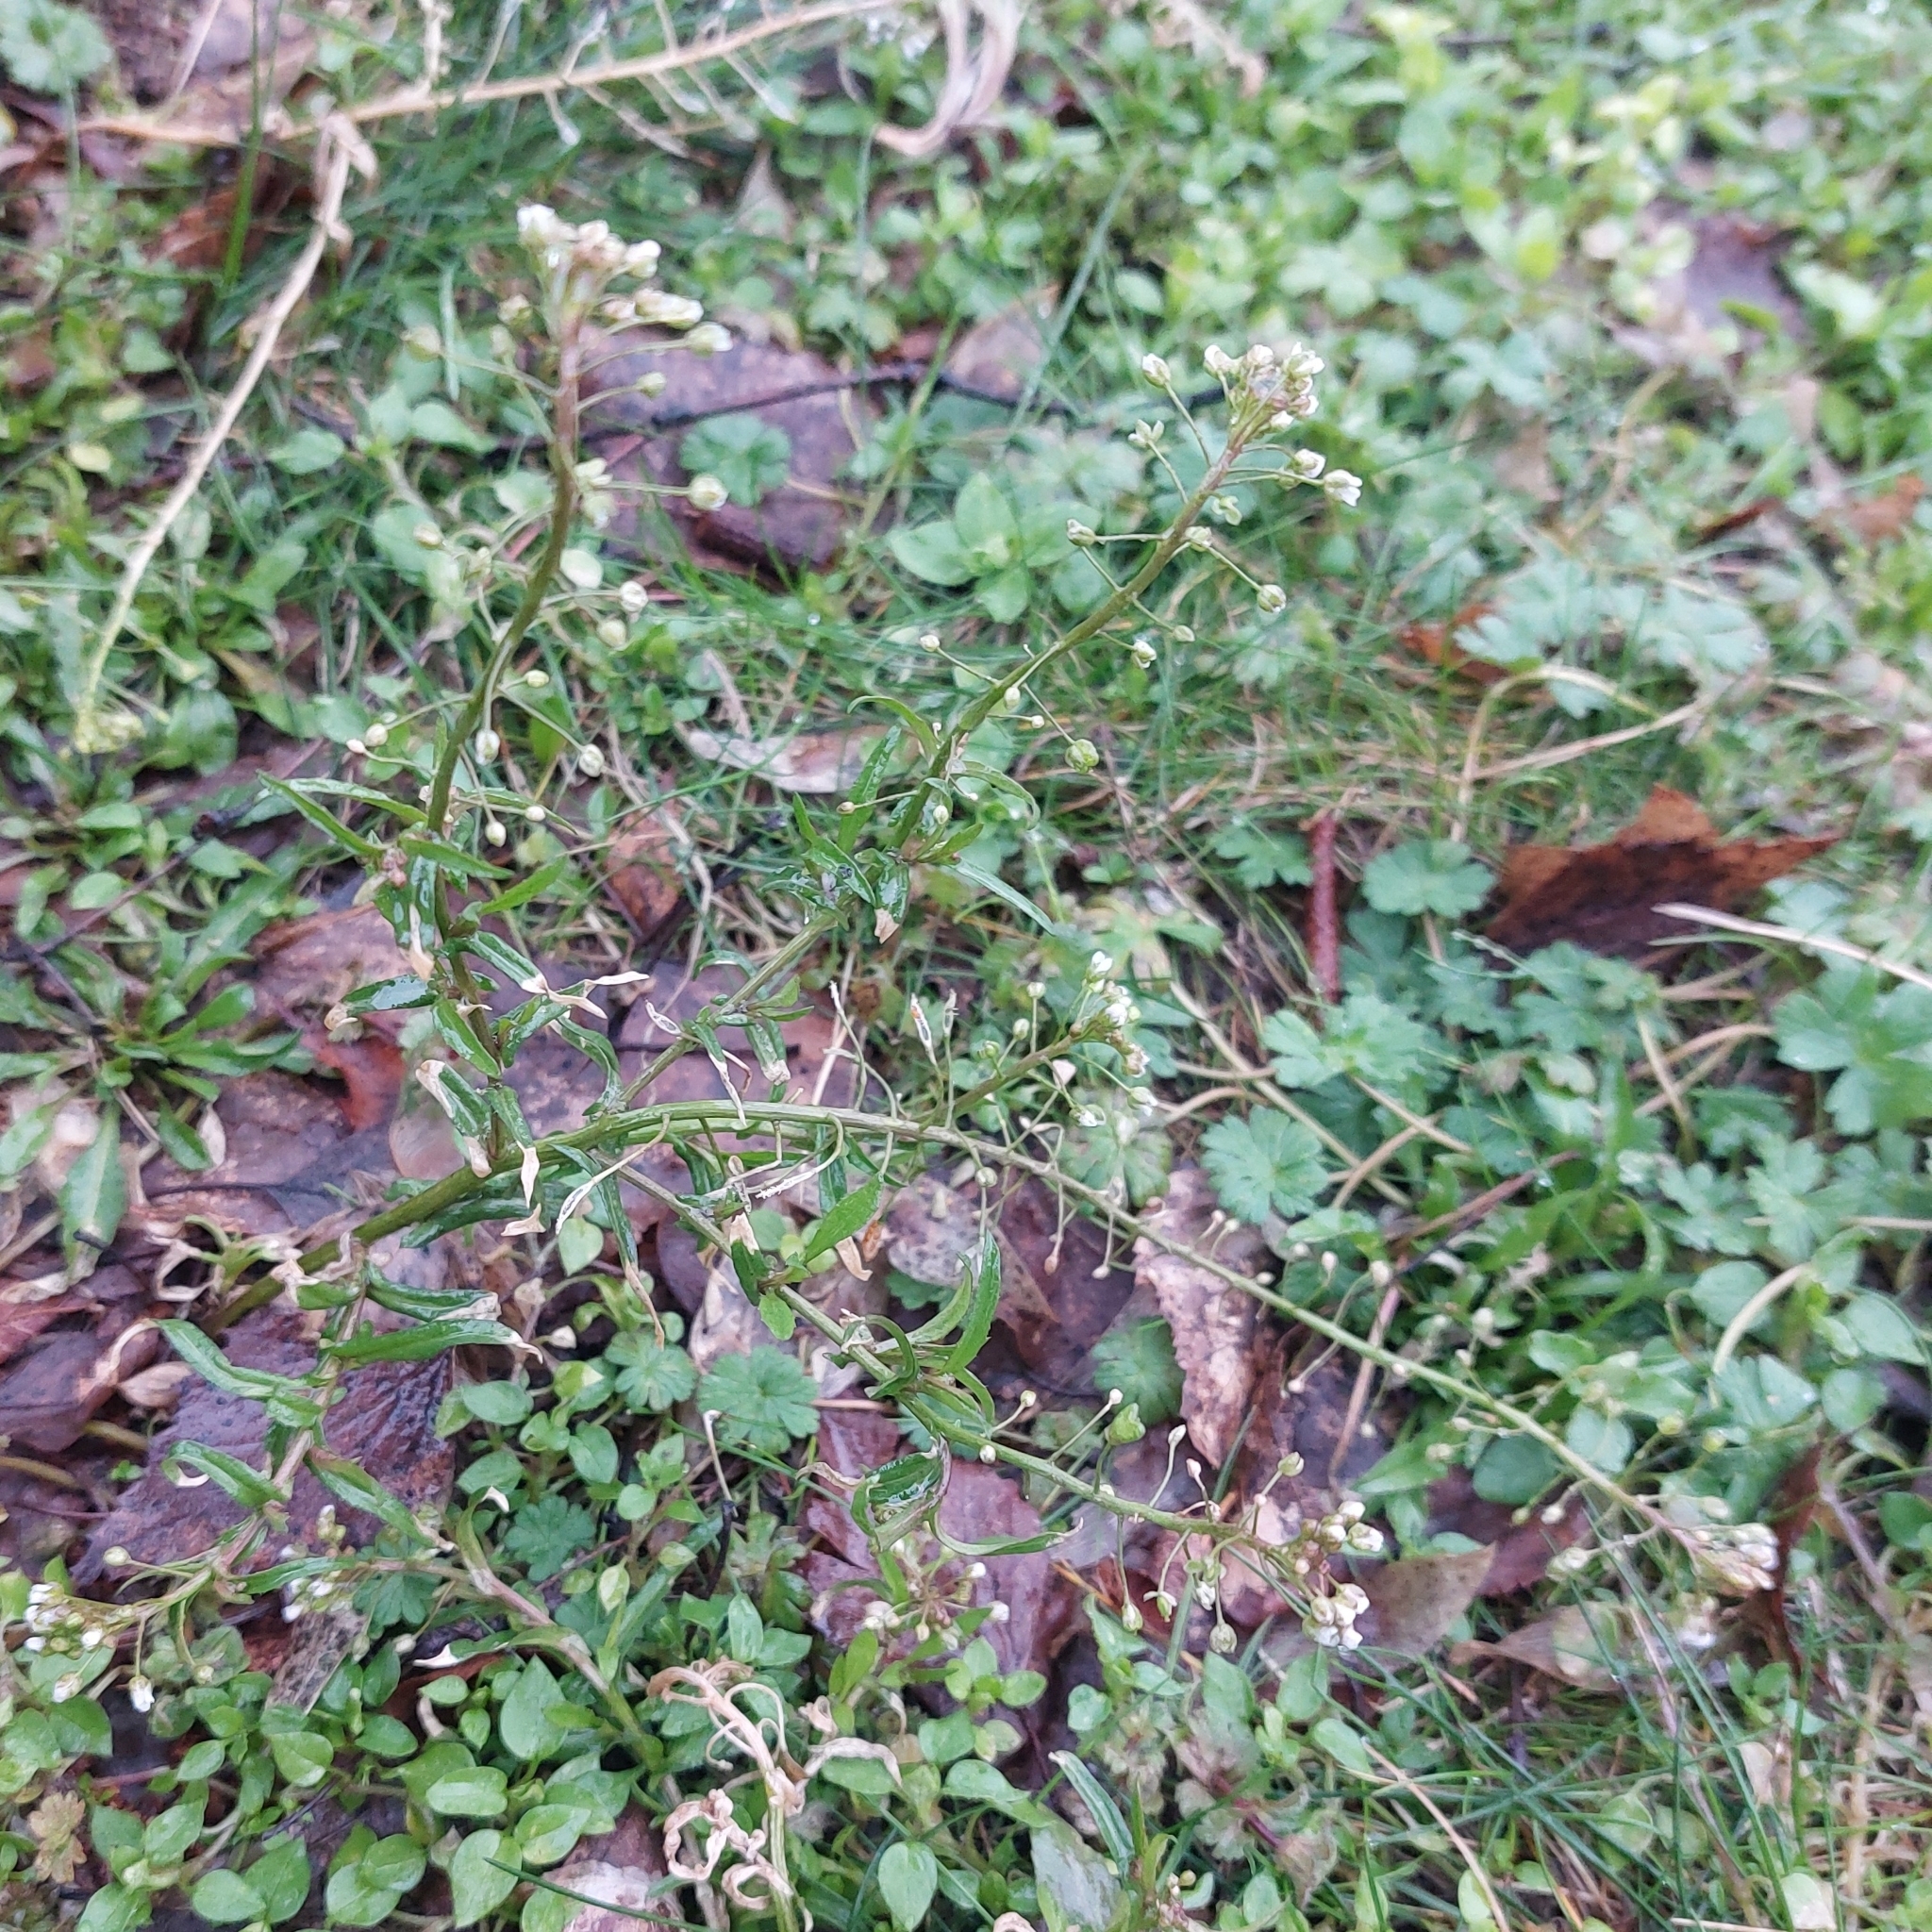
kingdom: Plantae
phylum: Tracheophyta
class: Magnoliopsida
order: Brassicales
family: Brassicaceae
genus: Capsella
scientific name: Capsella bursa-pastoris
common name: Shepherd's purse
